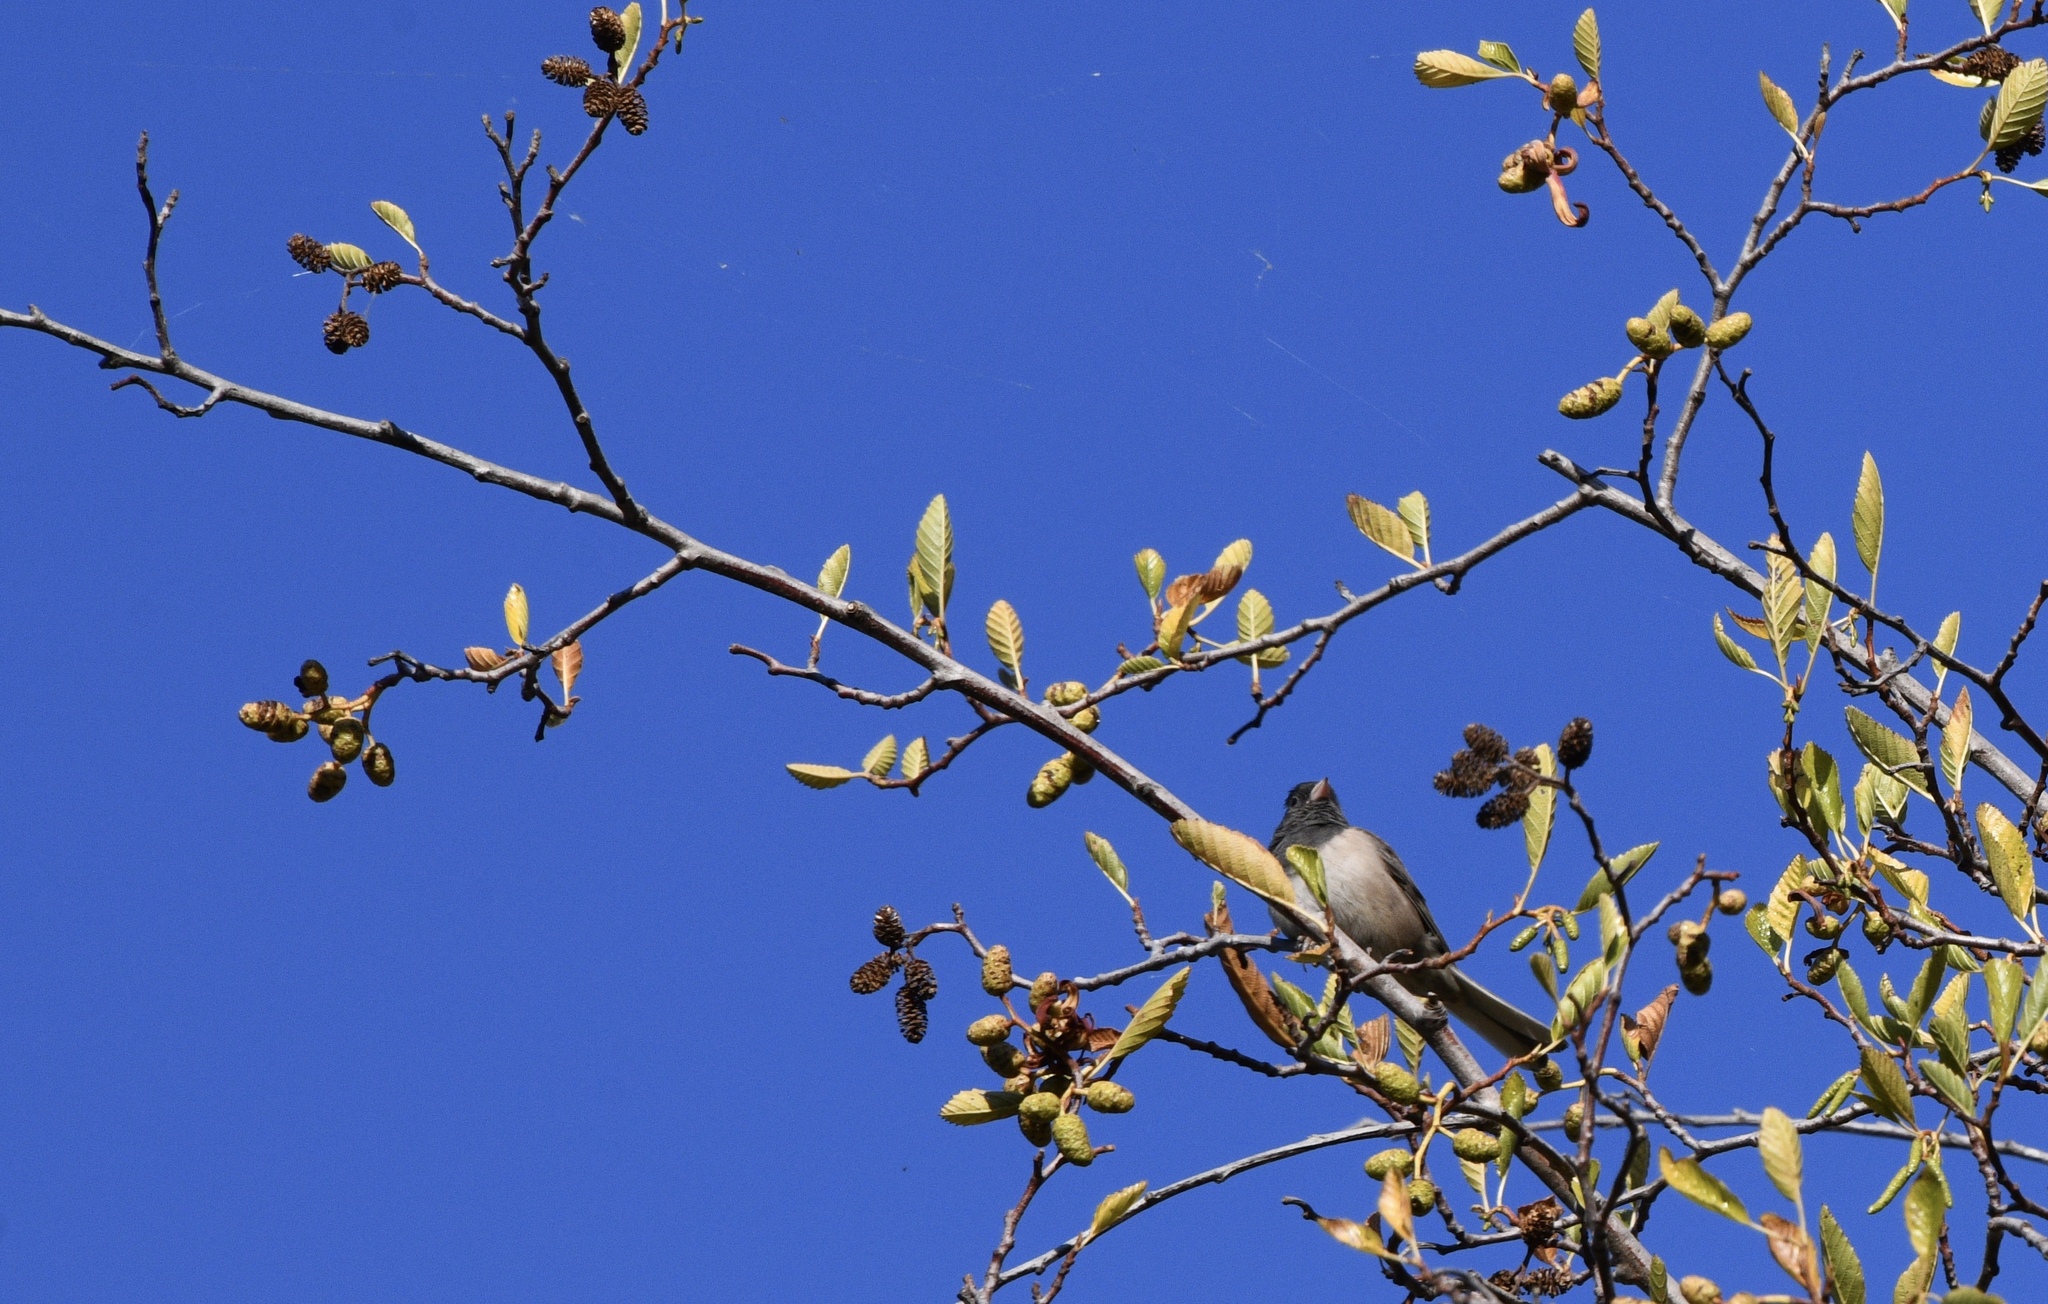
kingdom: Animalia
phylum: Chordata
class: Aves
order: Passeriformes
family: Passerellidae
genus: Junco
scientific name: Junco hyemalis
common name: Dark-eyed junco
